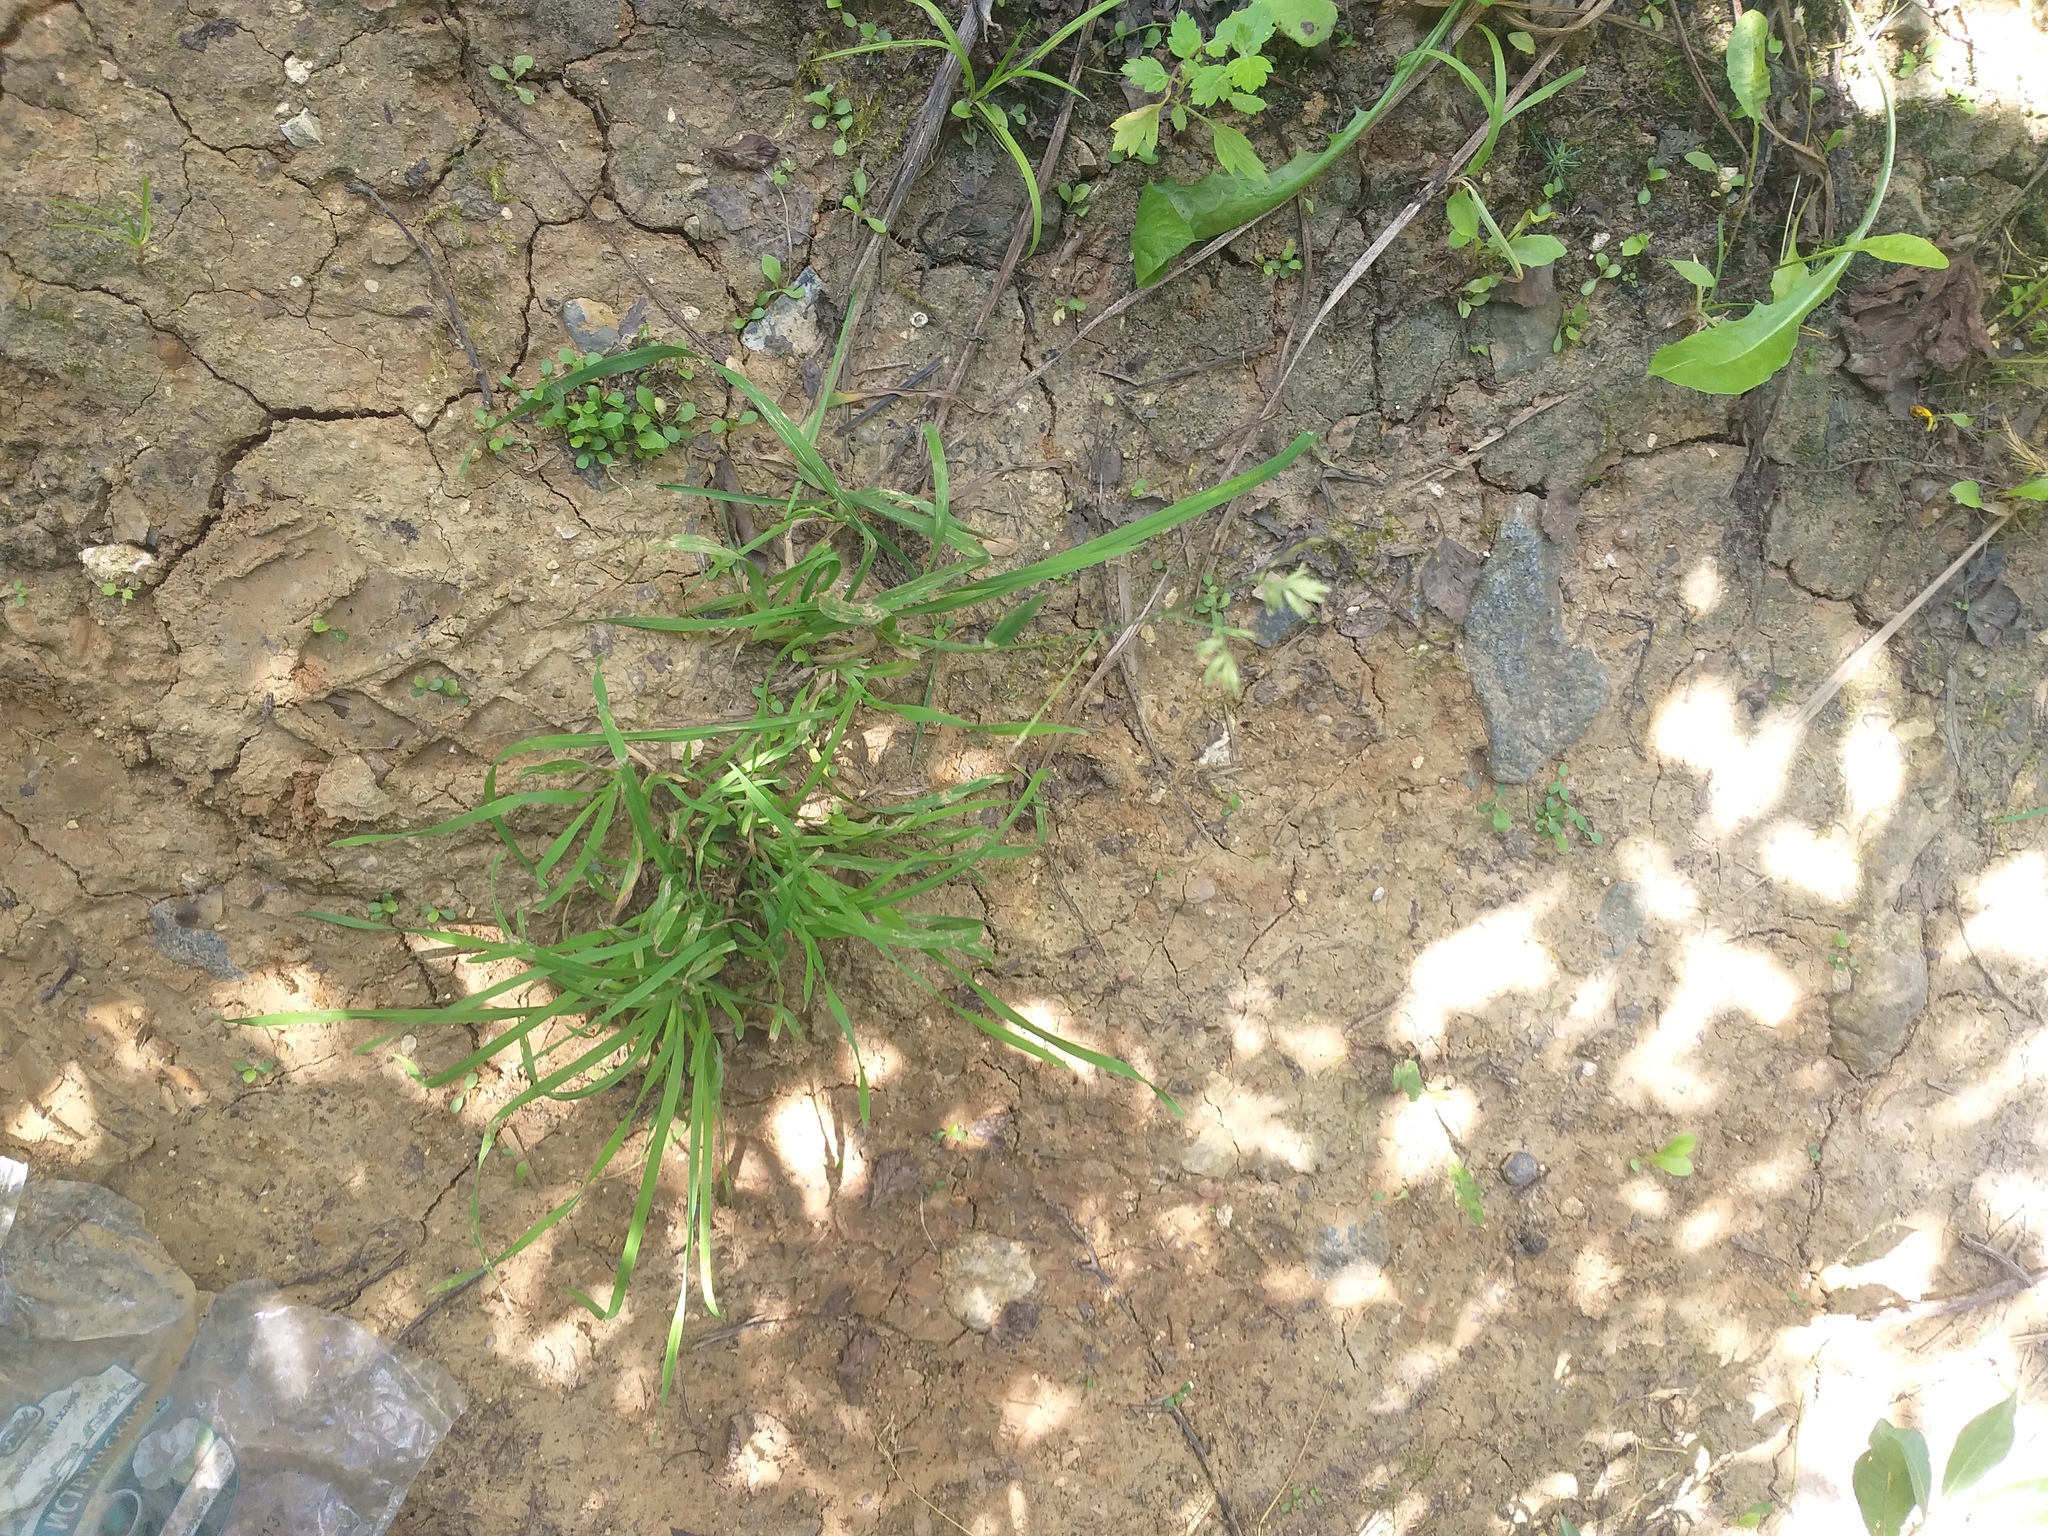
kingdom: Plantae
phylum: Tracheophyta
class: Liliopsida
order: Poales
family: Poaceae
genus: Dactylis
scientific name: Dactylis glomerata
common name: Orchardgrass
